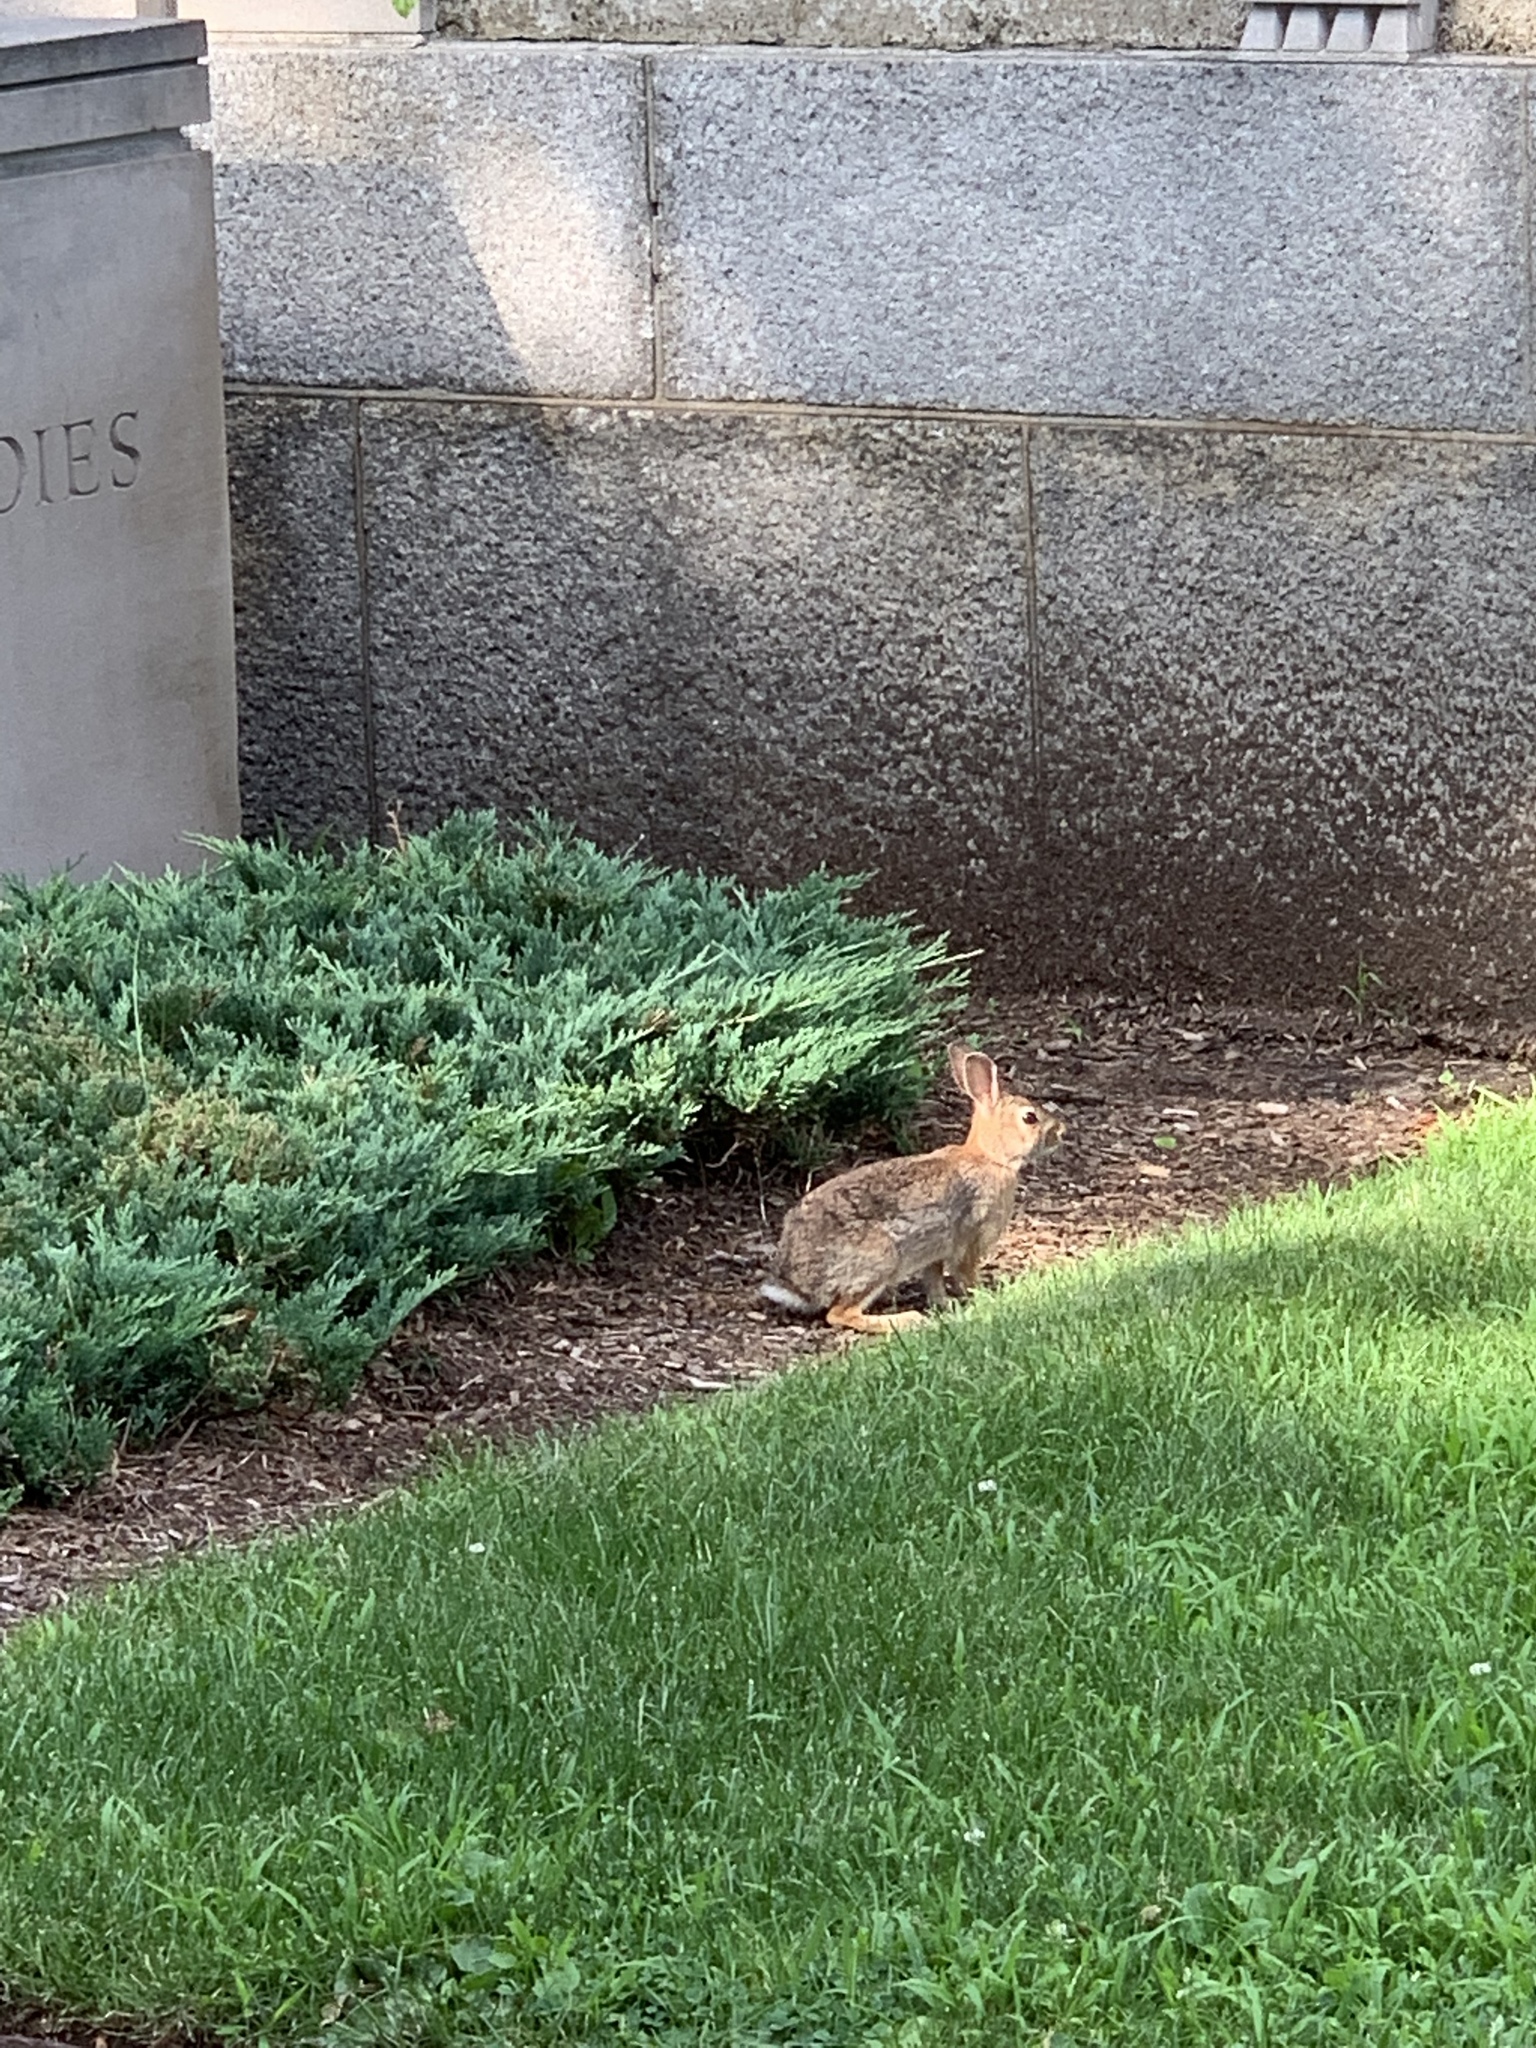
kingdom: Animalia
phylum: Chordata
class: Mammalia
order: Lagomorpha
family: Leporidae
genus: Sylvilagus
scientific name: Sylvilagus floridanus
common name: Eastern cottontail
